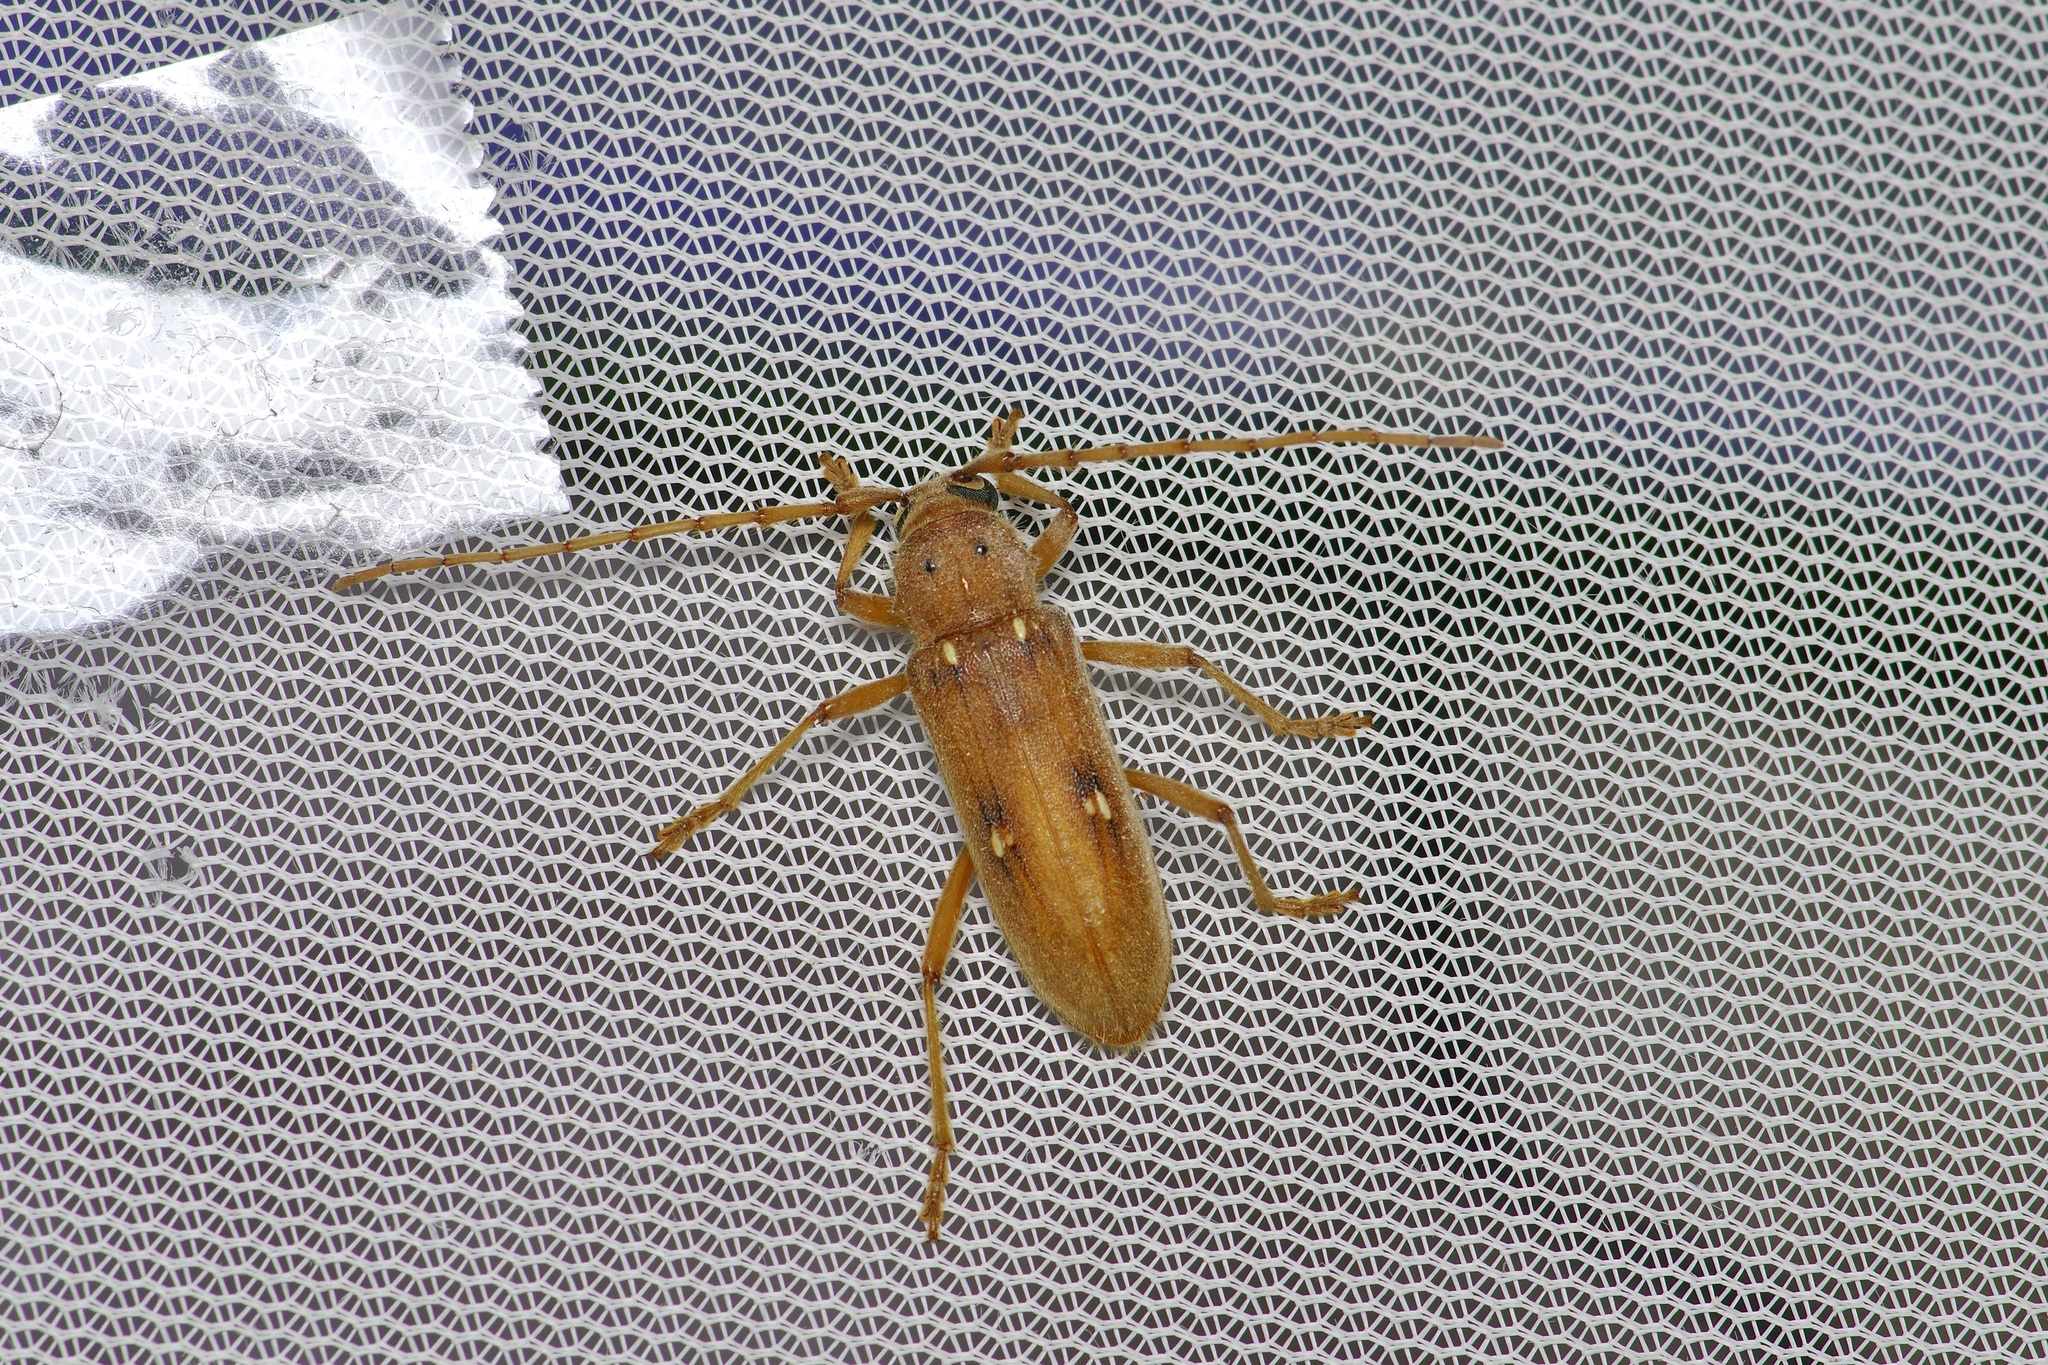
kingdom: Animalia
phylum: Arthropoda
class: Insecta
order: Coleoptera
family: Cerambycidae
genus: Eburia
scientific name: Eburia haldemani
